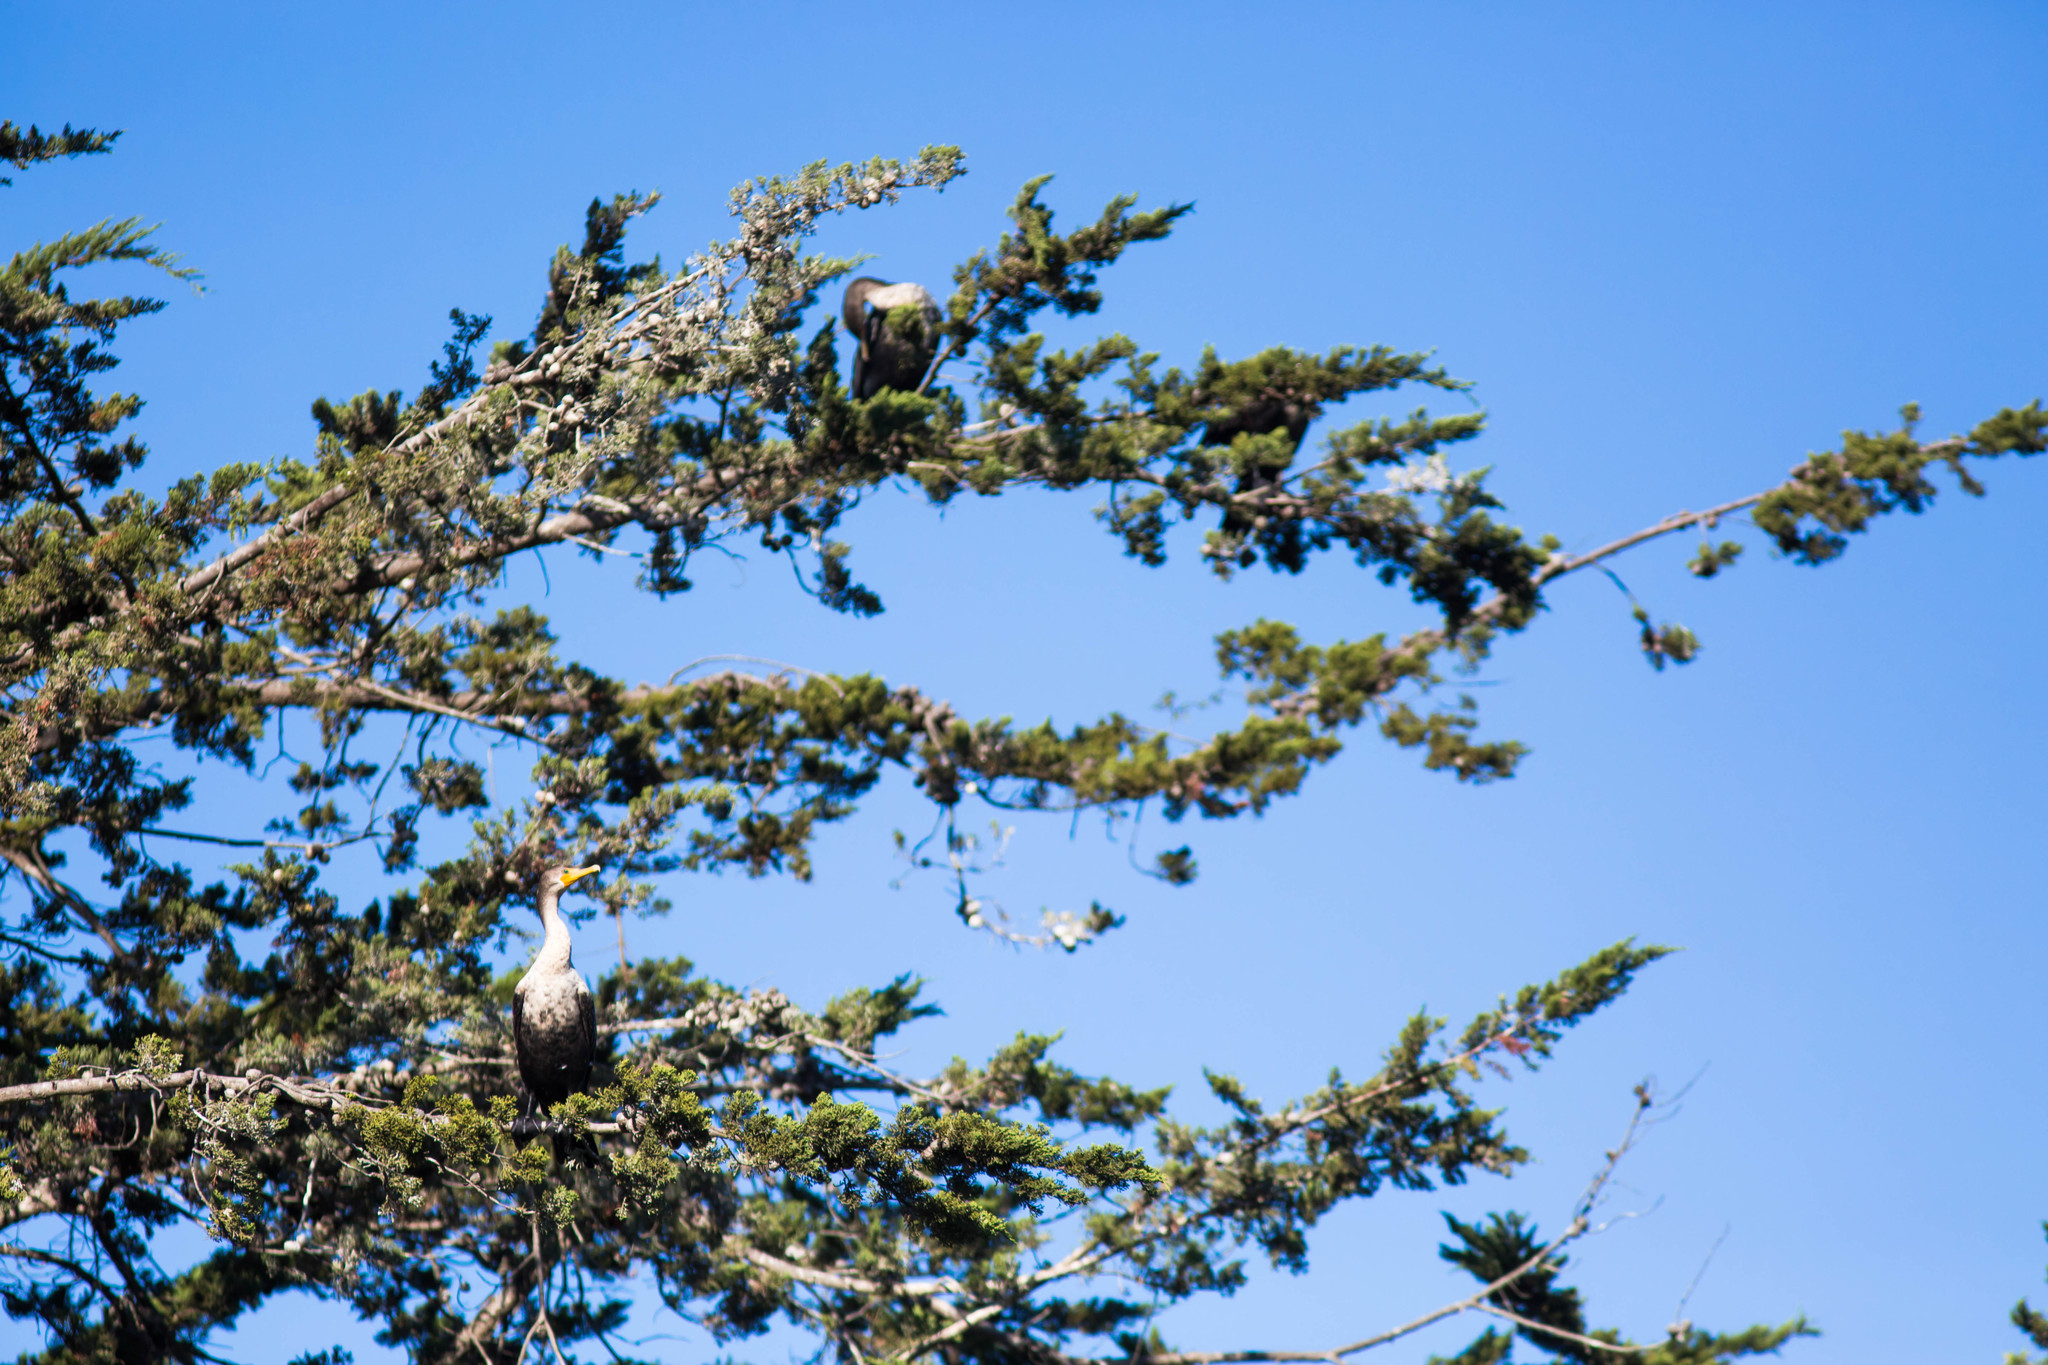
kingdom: Animalia
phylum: Chordata
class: Aves
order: Suliformes
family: Phalacrocoracidae
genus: Phalacrocorax
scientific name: Phalacrocorax auritus
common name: Double-crested cormorant
